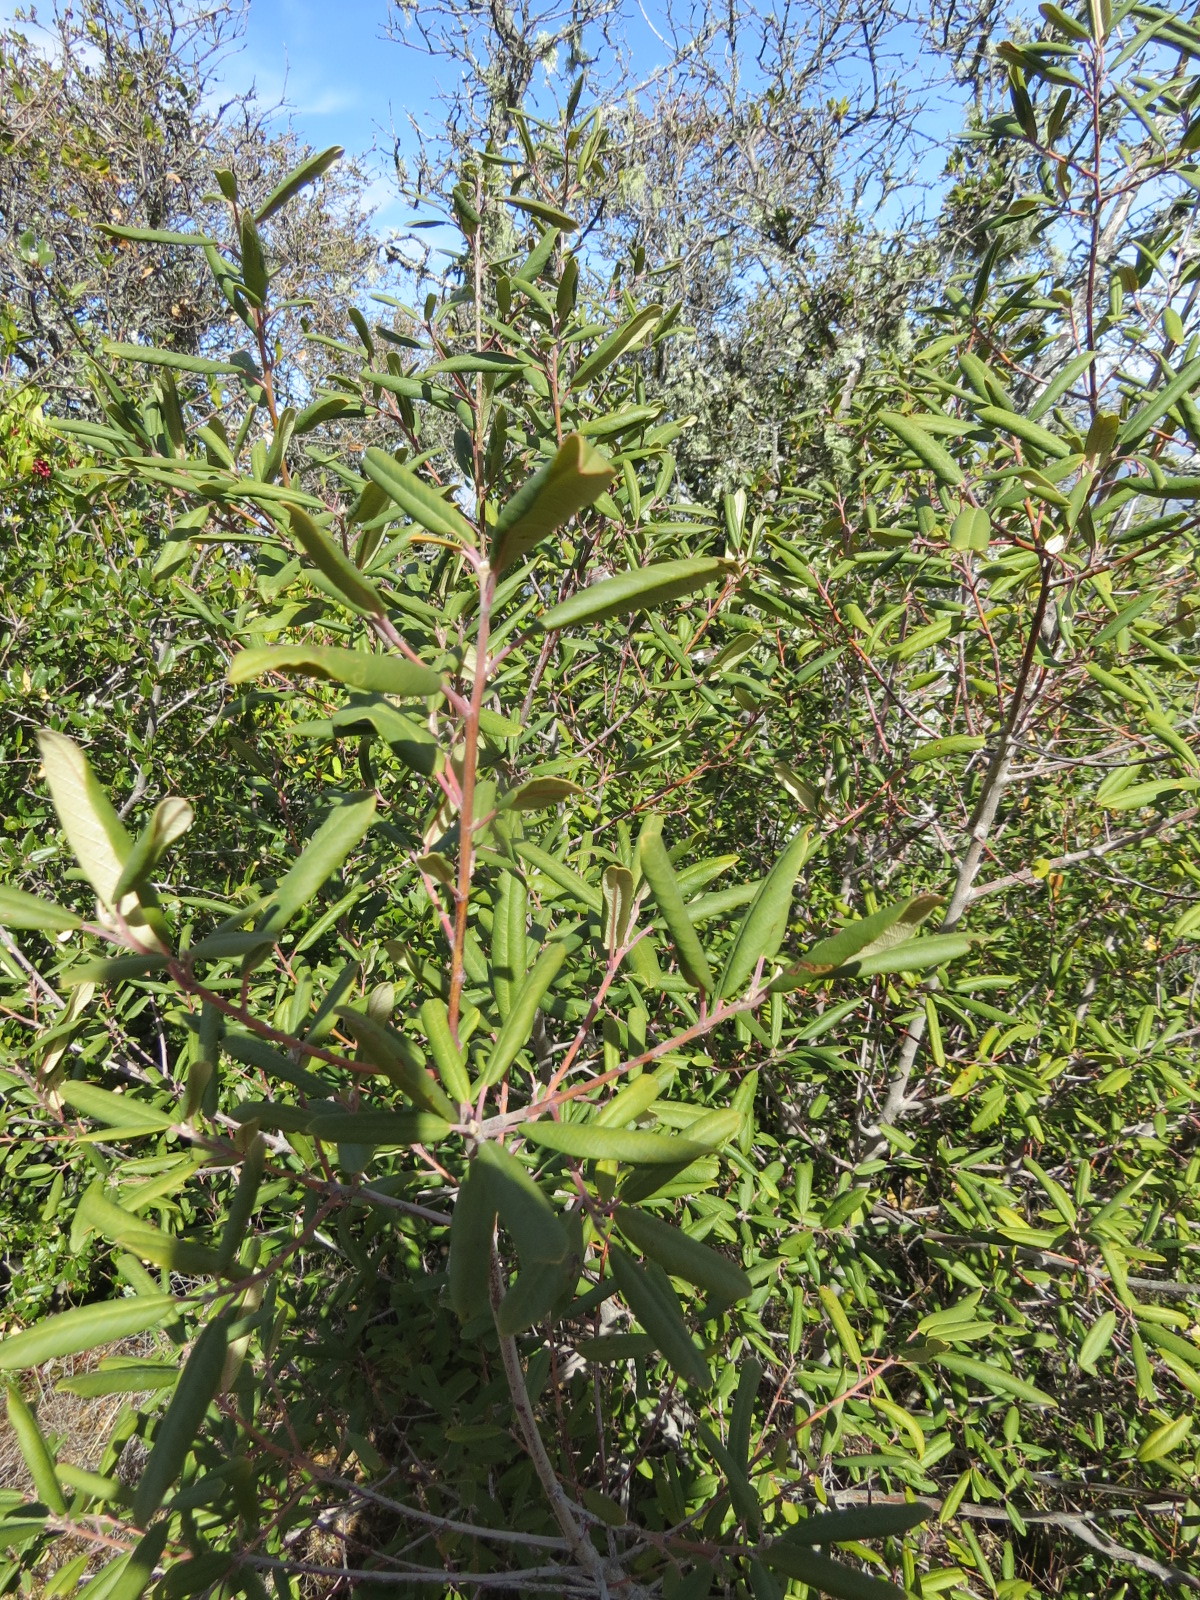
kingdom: Plantae
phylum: Tracheophyta
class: Magnoliopsida
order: Rosales
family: Rhamnaceae
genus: Frangula
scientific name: Frangula californica
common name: California buckthorn
